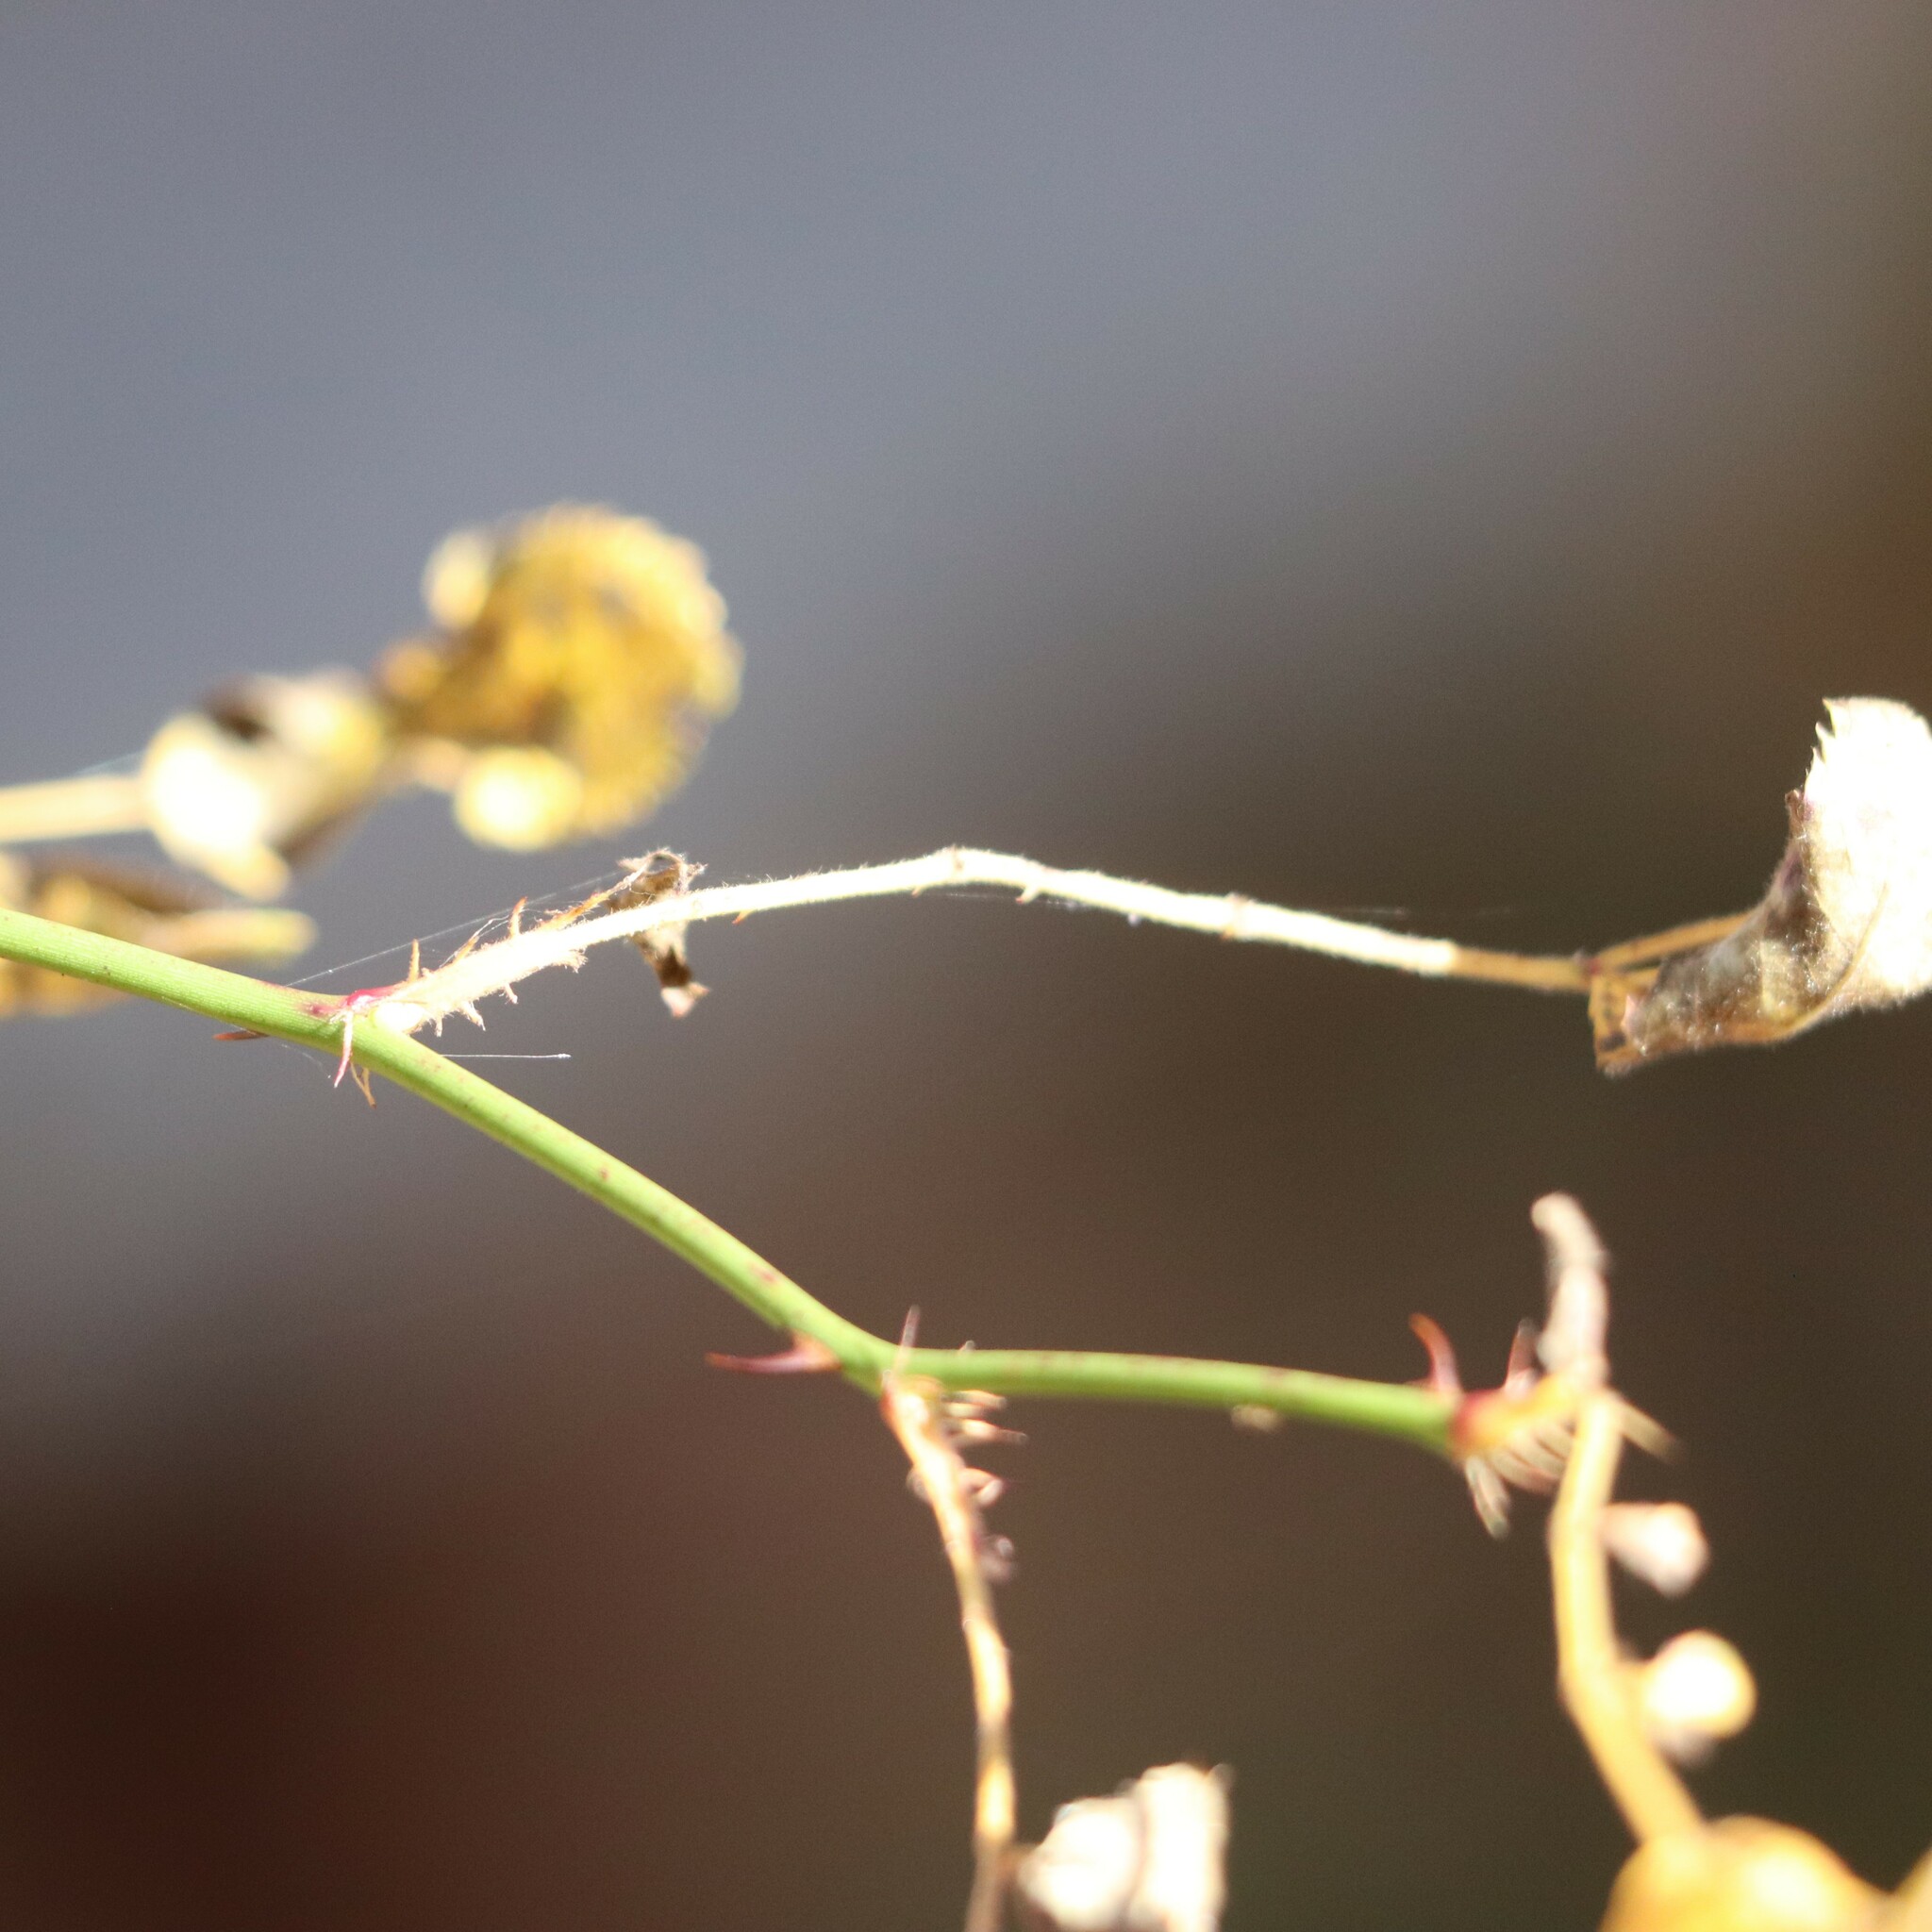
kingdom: Plantae
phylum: Tracheophyta
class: Magnoliopsida
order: Rosales
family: Rosaceae
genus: Rosa
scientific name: Rosa multiflora
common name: Multiflora rose
